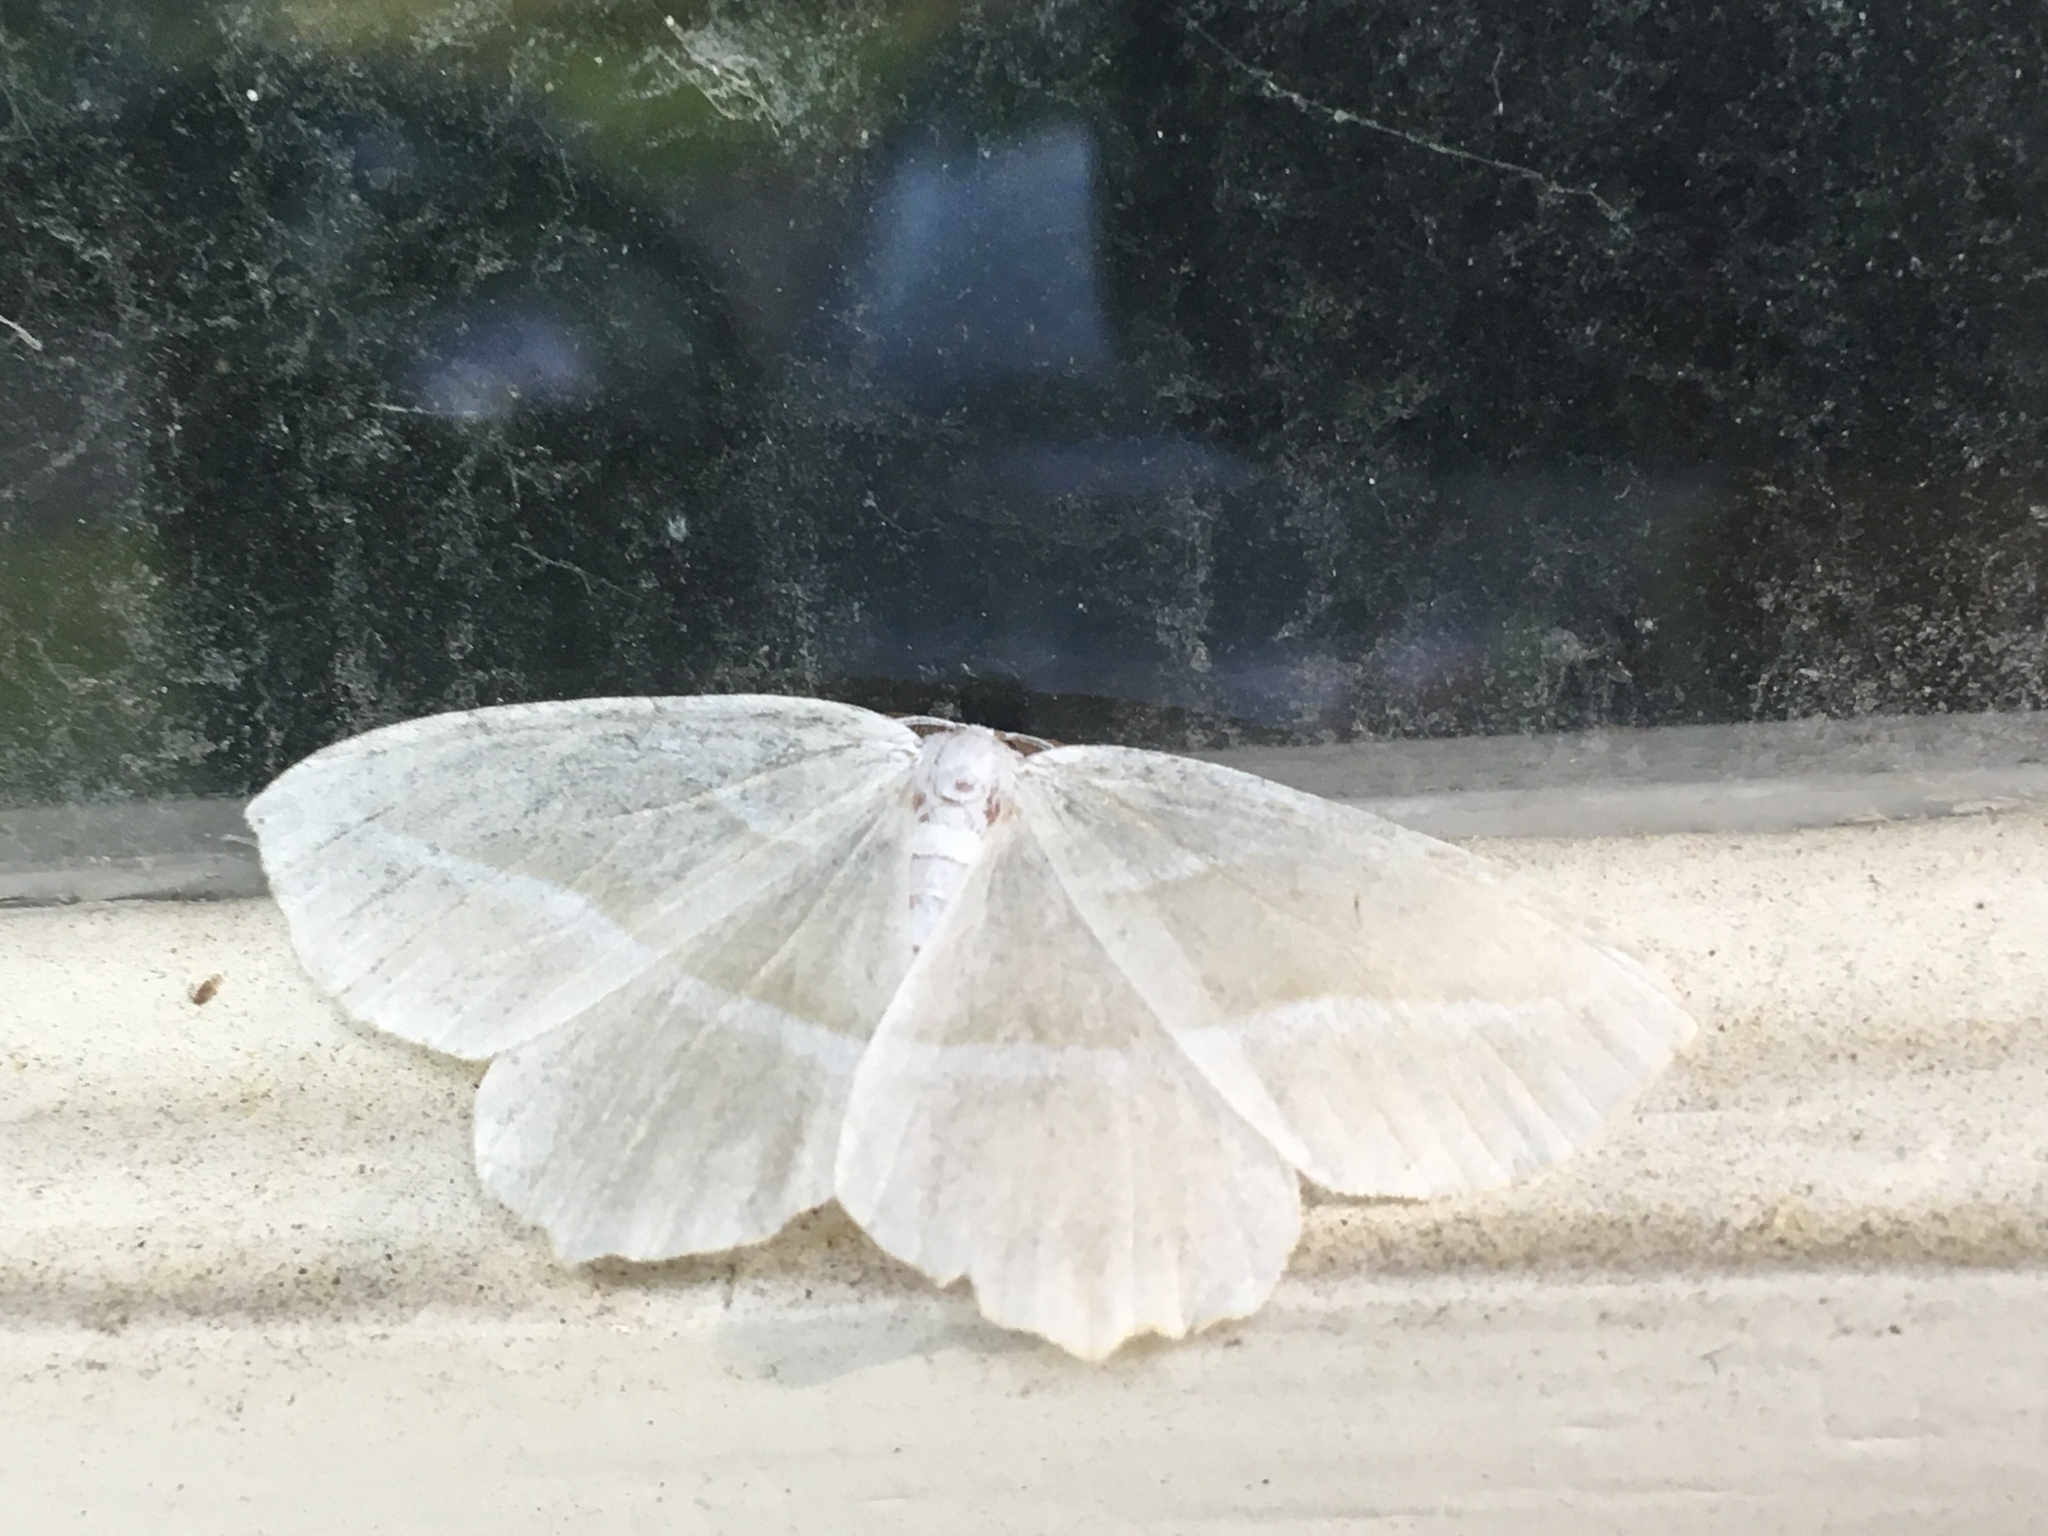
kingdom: Animalia
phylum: Arthropoda
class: Insecta
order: Lepidoptera
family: Geometridae
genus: Campaea
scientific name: Campaea perlata
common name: Fringed looper
